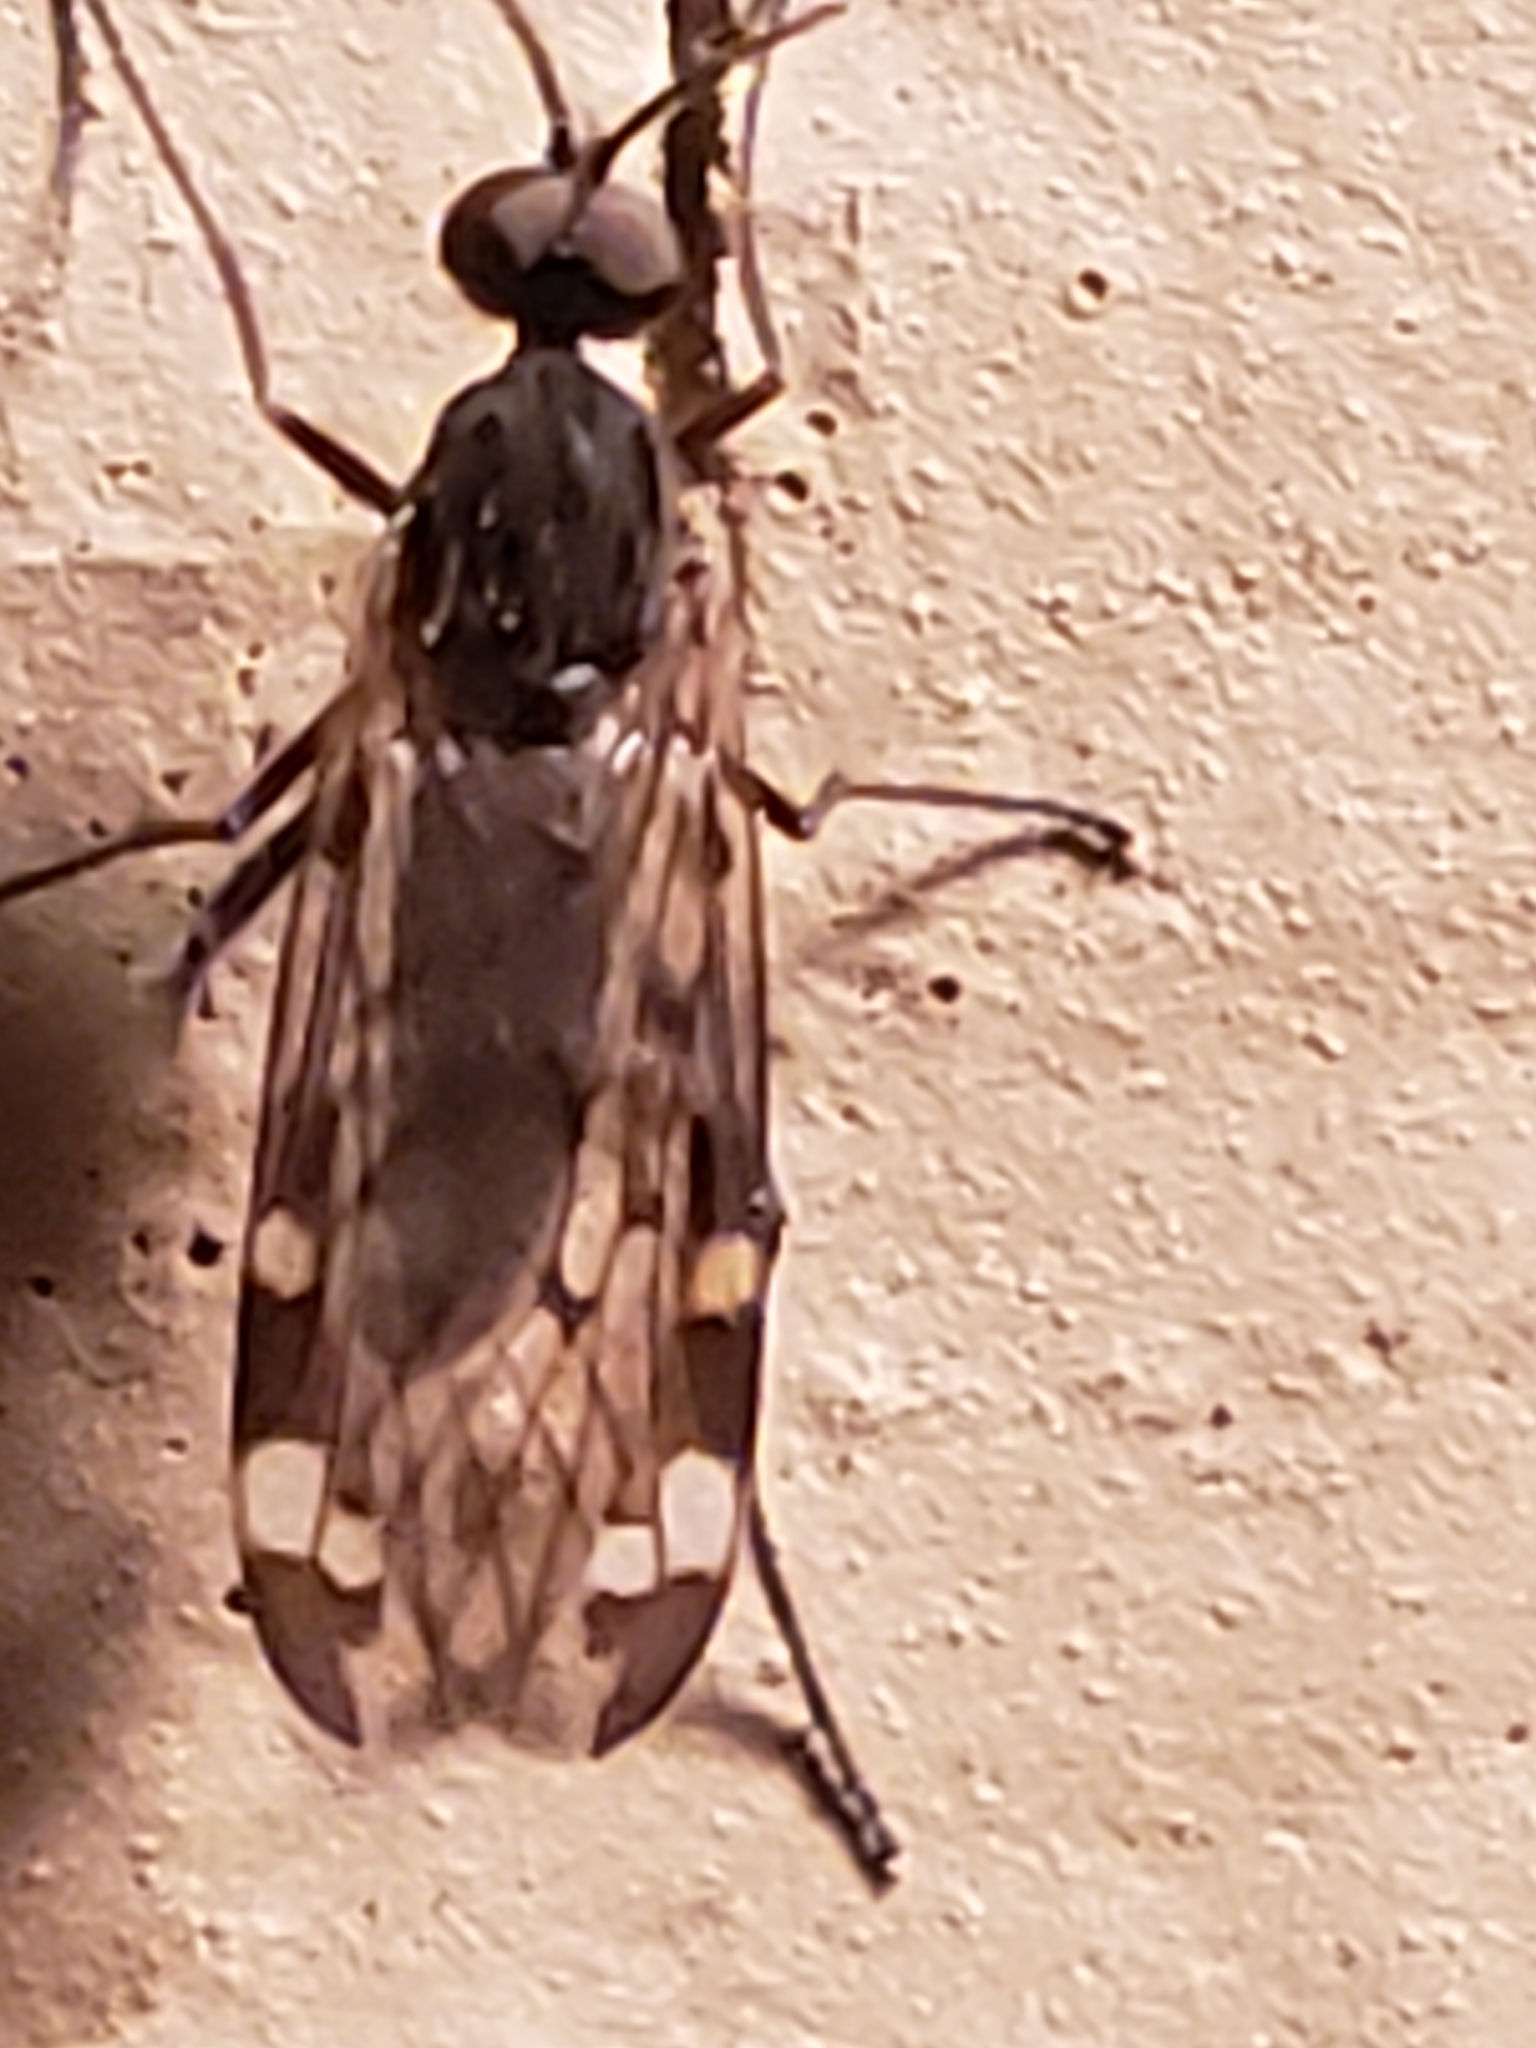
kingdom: Animalia
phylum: Arthropoda
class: Insecta
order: Diptera
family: Anisopodidae
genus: Sylvicola
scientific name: Sylvicola alternata
